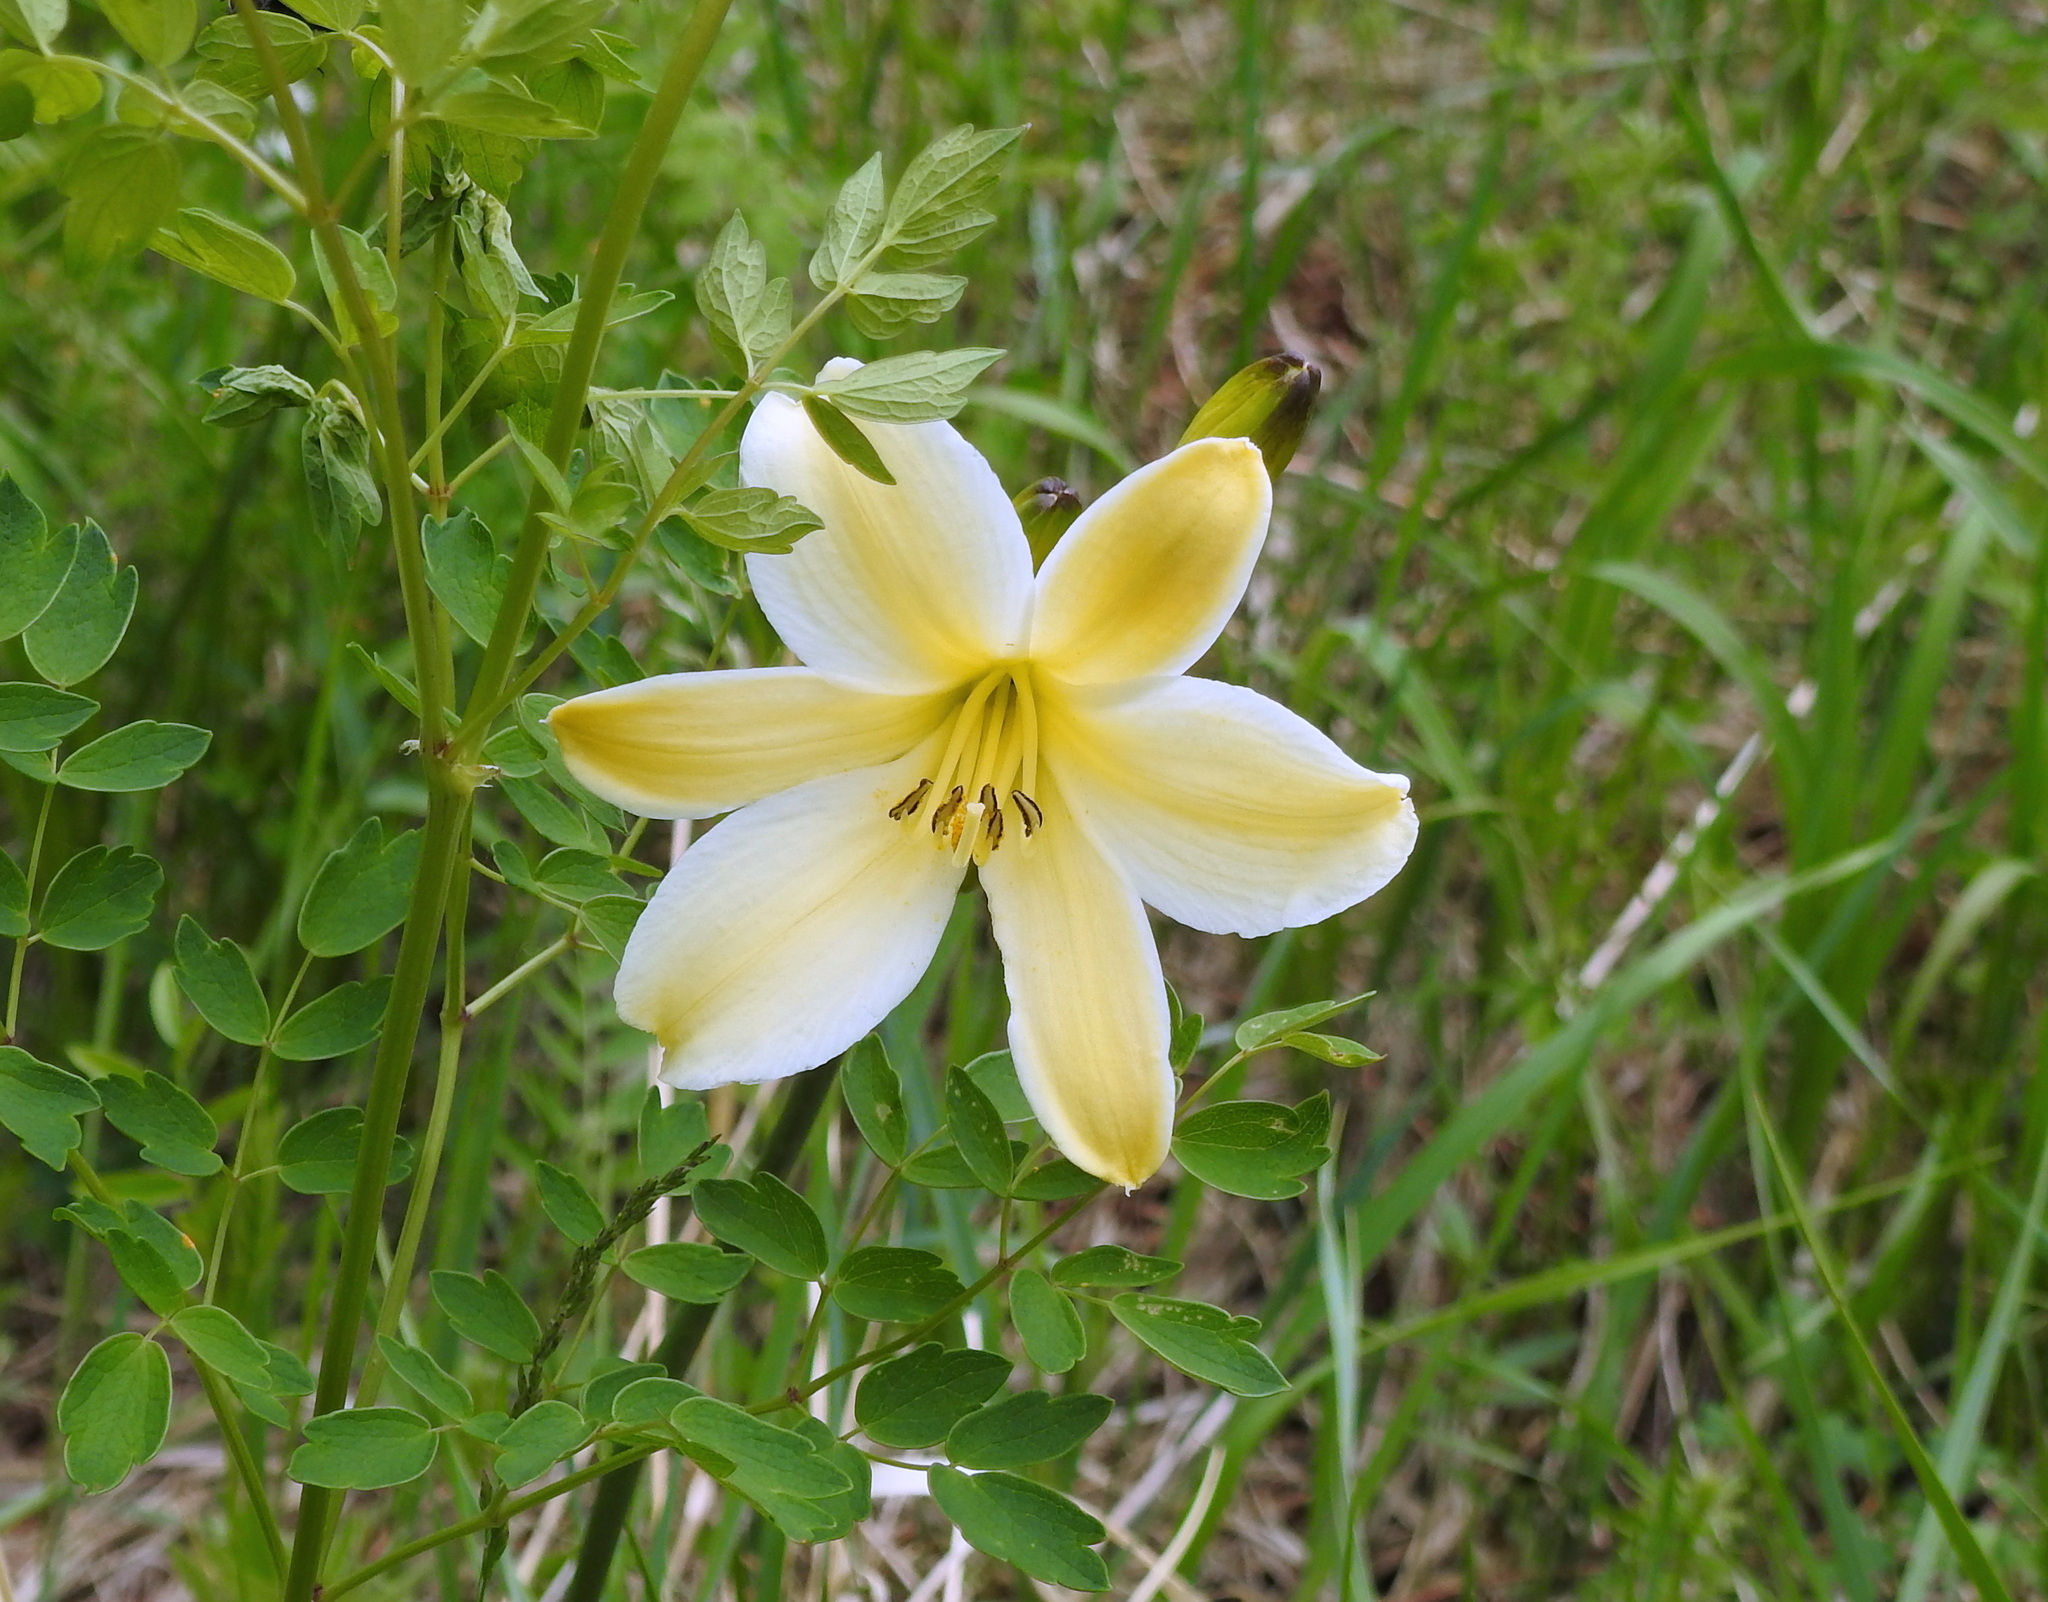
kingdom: Plantae
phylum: Tracheophyta
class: Liliopsida
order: Asparagales
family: Asphodelaceae
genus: Hemerocallis
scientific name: Hemerocallis minor
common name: Small daylily
